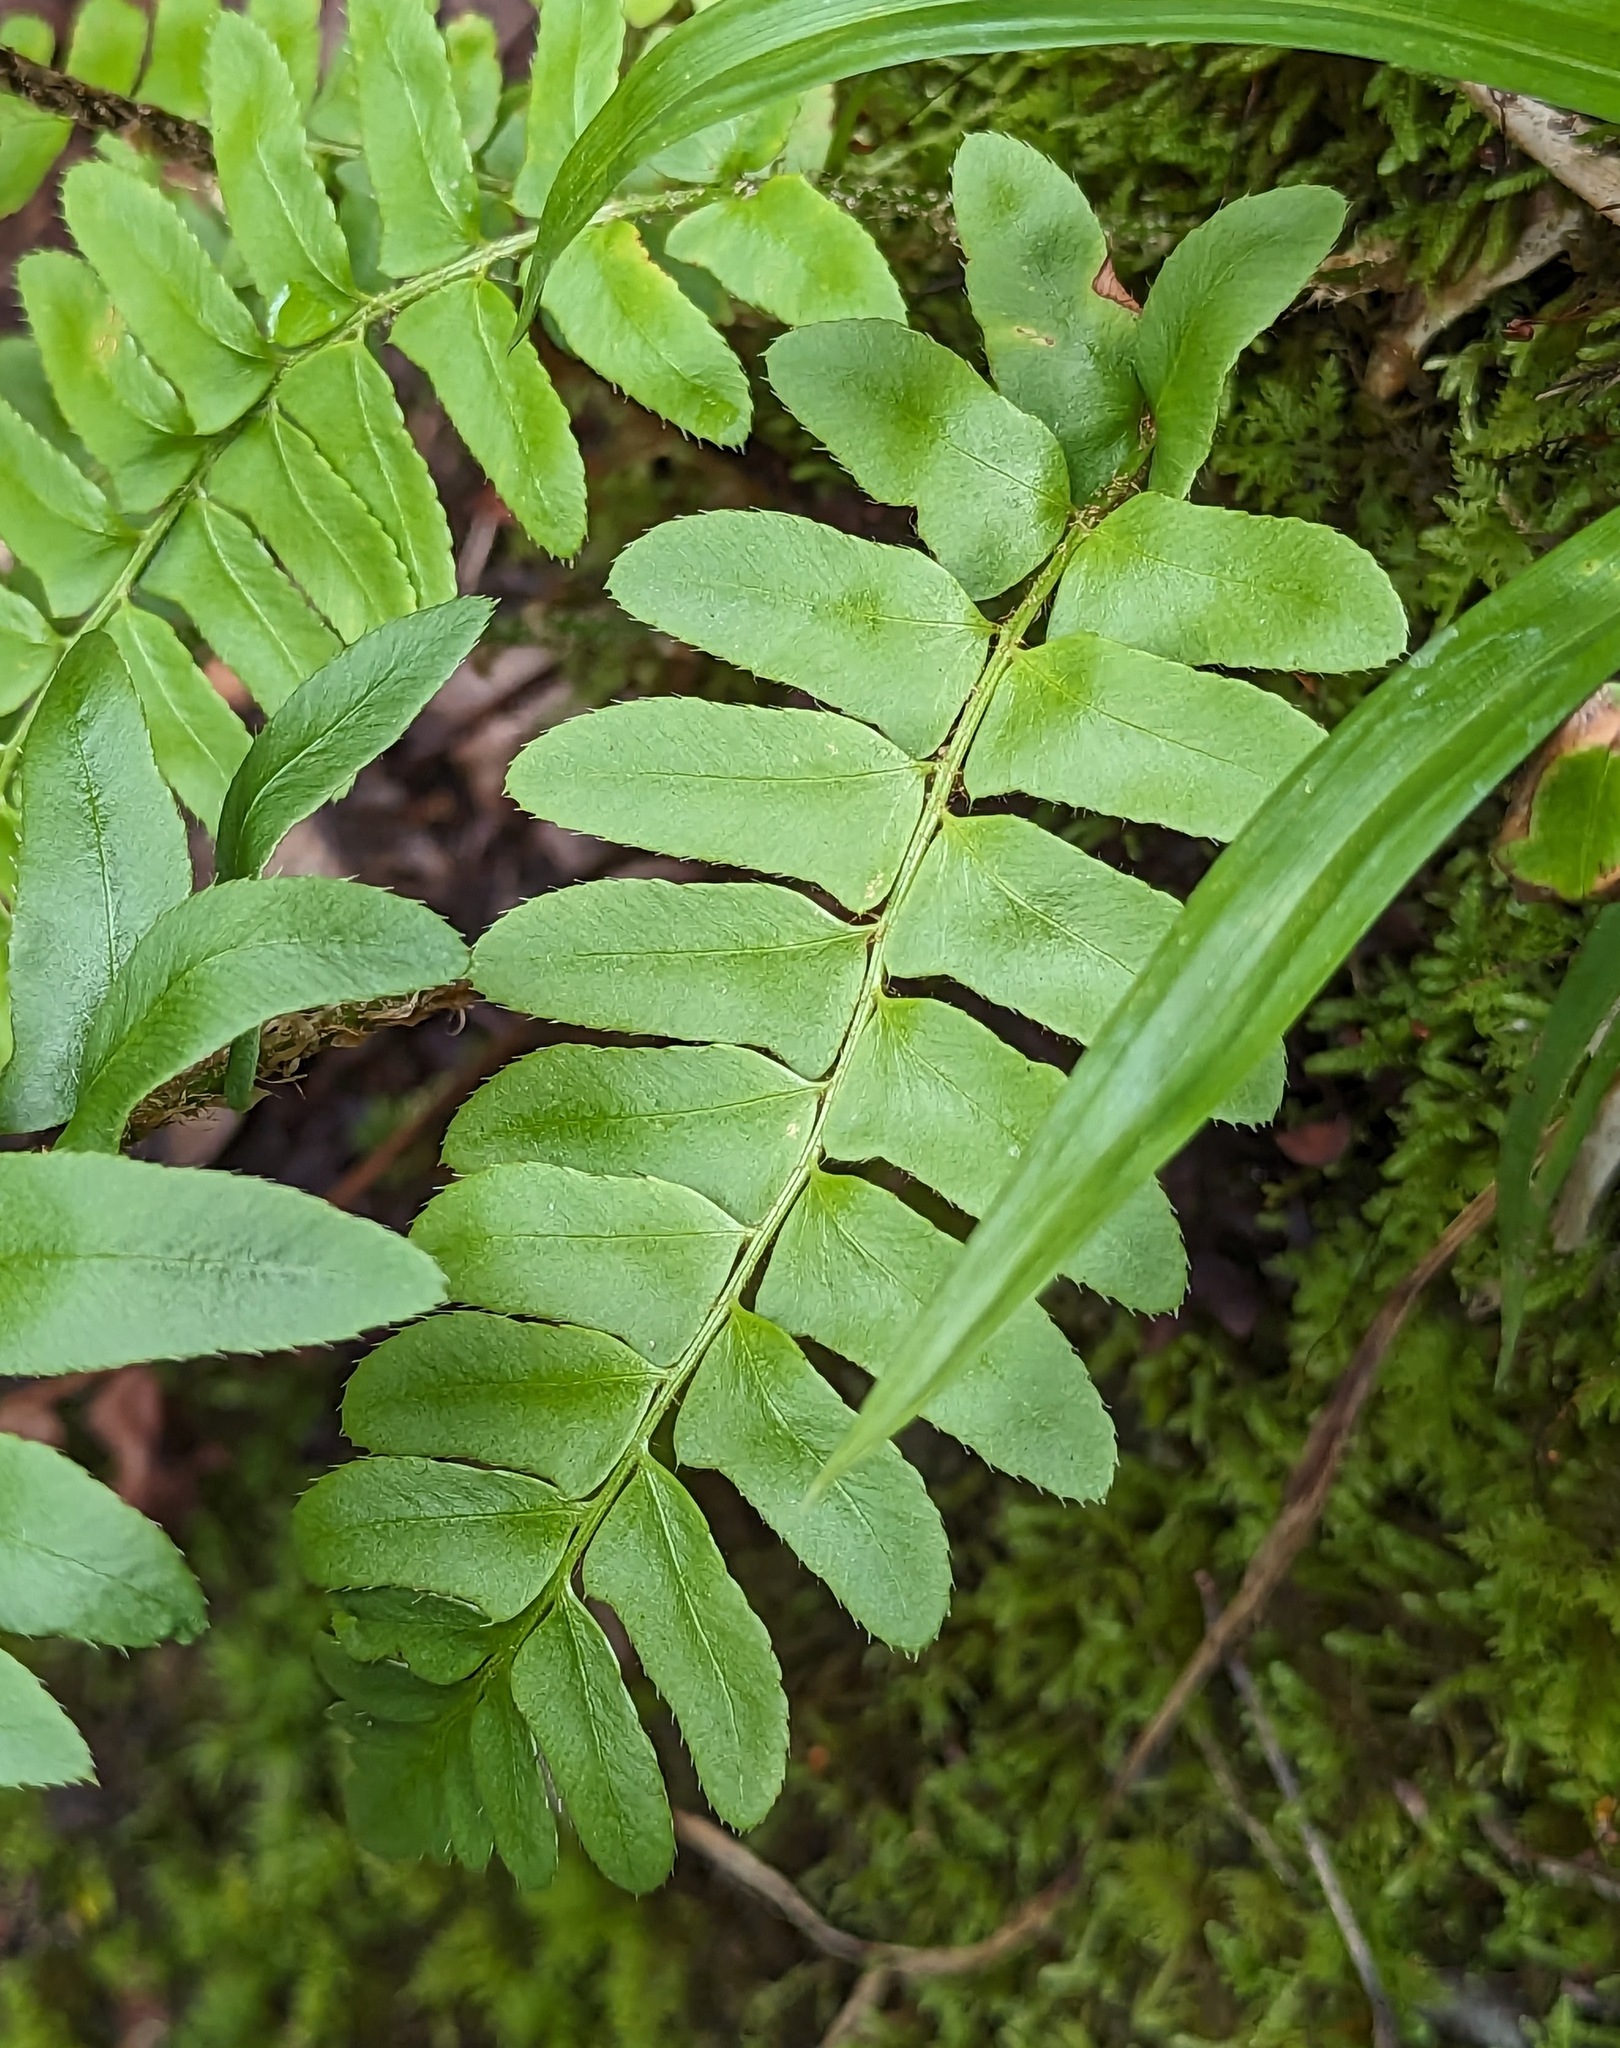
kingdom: Plantae
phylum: Tracheophyta
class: Polypodiopsida
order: Polypodiales
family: Dryopteridaceae
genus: Polystichum
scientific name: Polystichum acrostichoides
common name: Christmas fern
